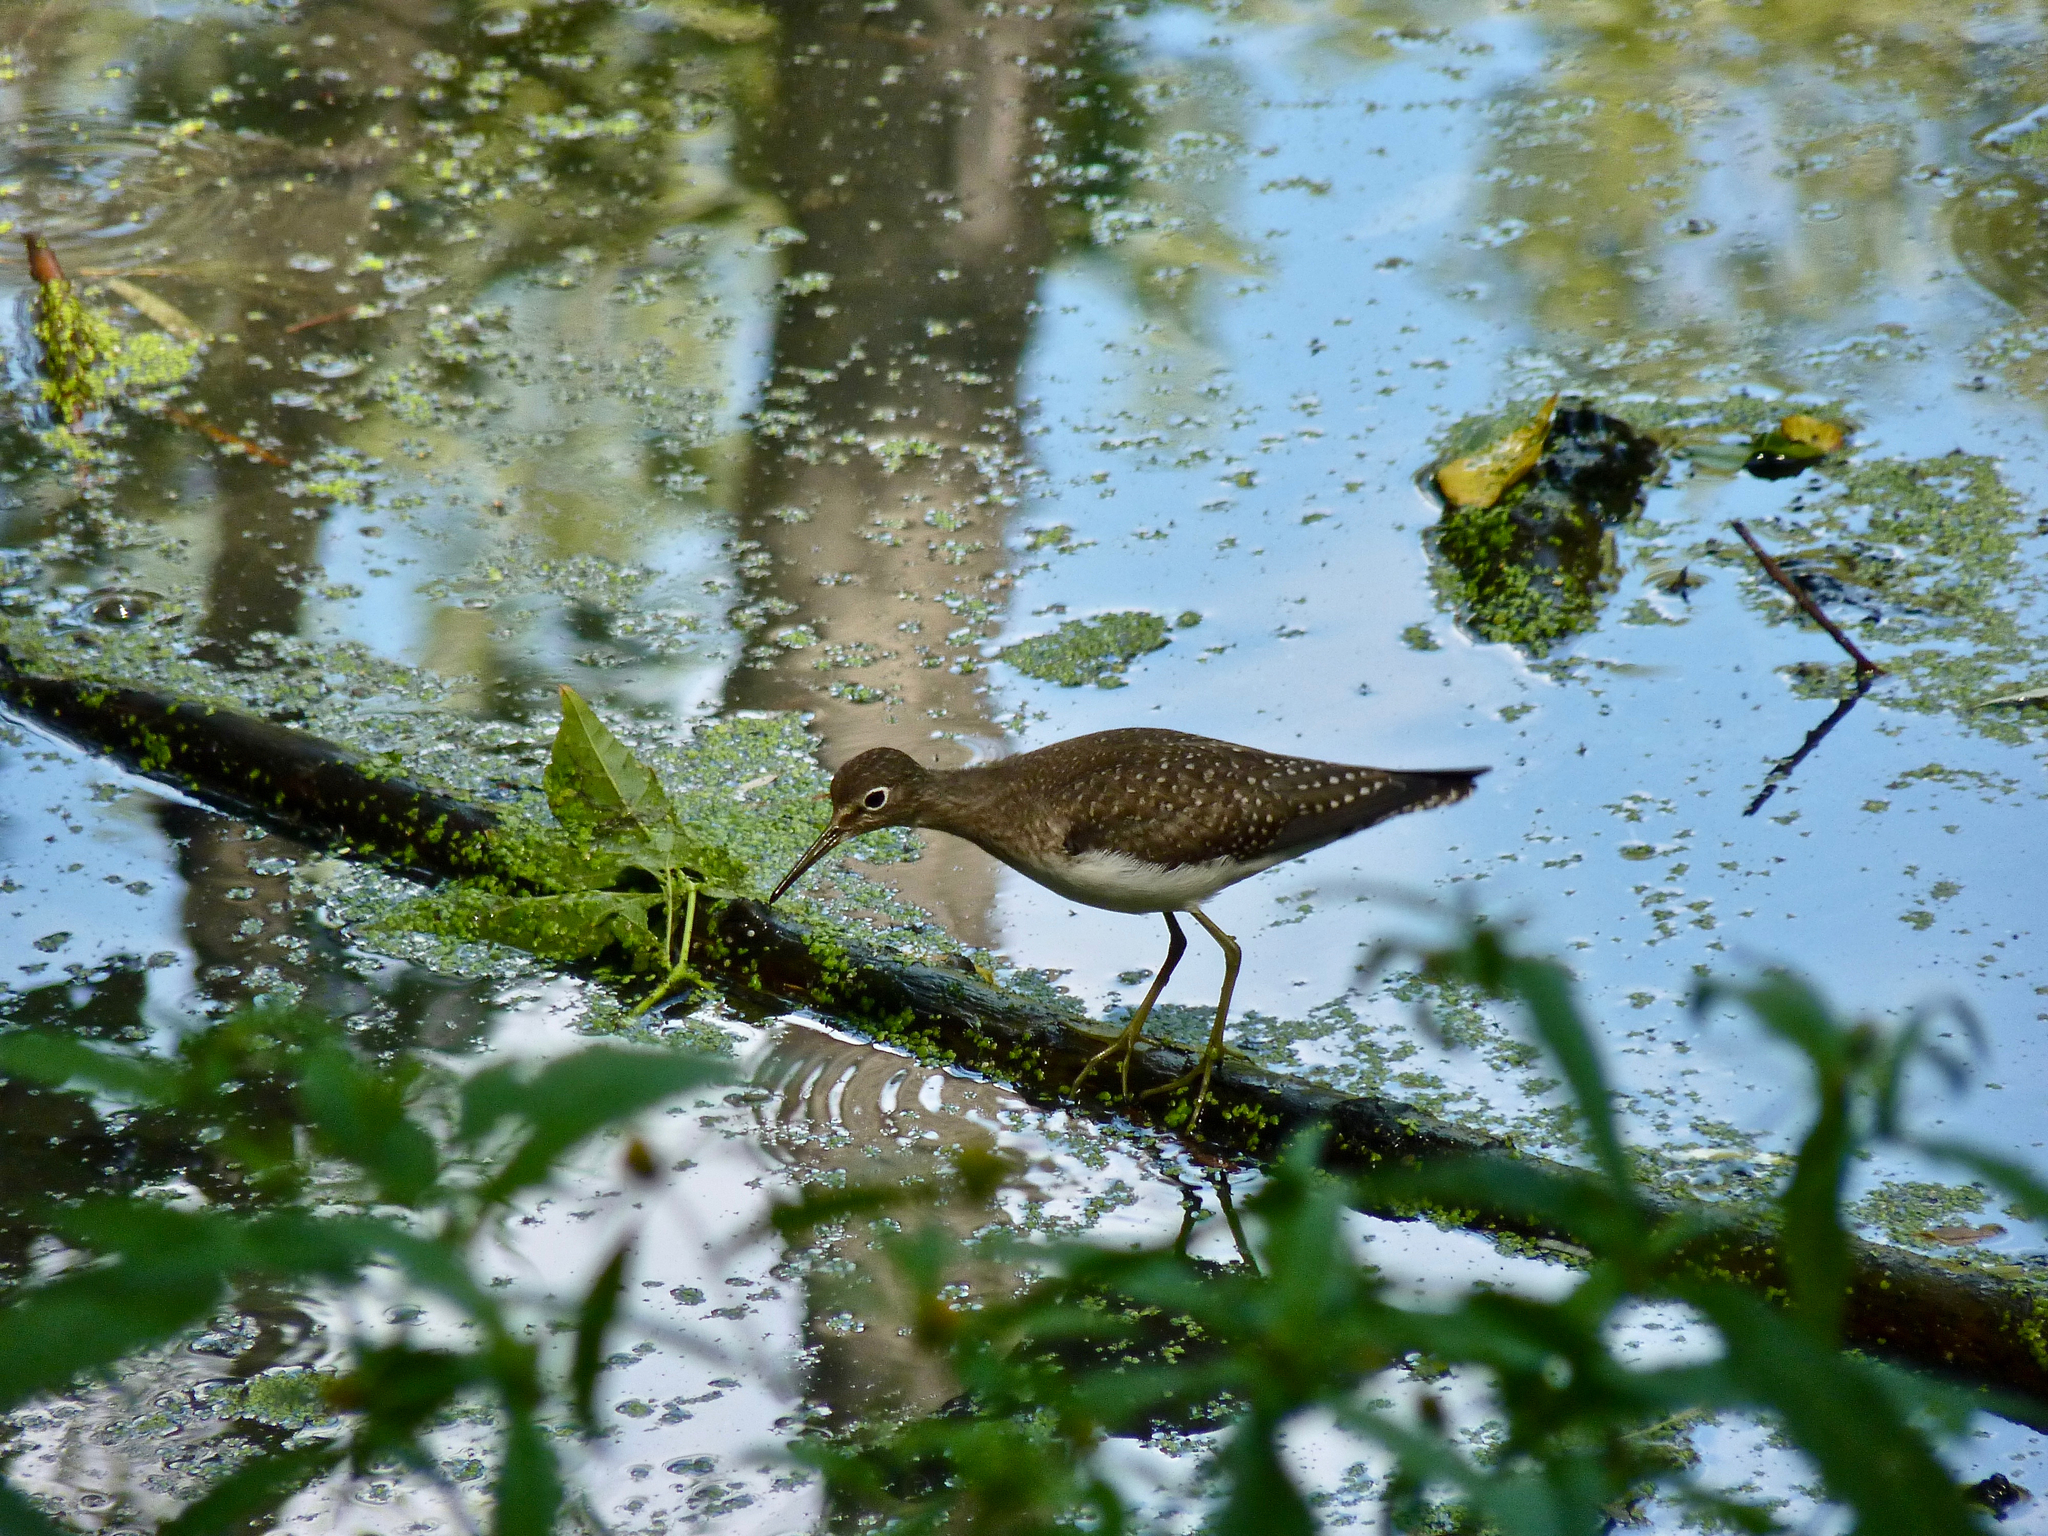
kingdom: Animalia
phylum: Chordata
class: Aves
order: Charadriiformes
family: Scolopacidae
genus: Tringa
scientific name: Tringa solitaria
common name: Solitary sandpiper
